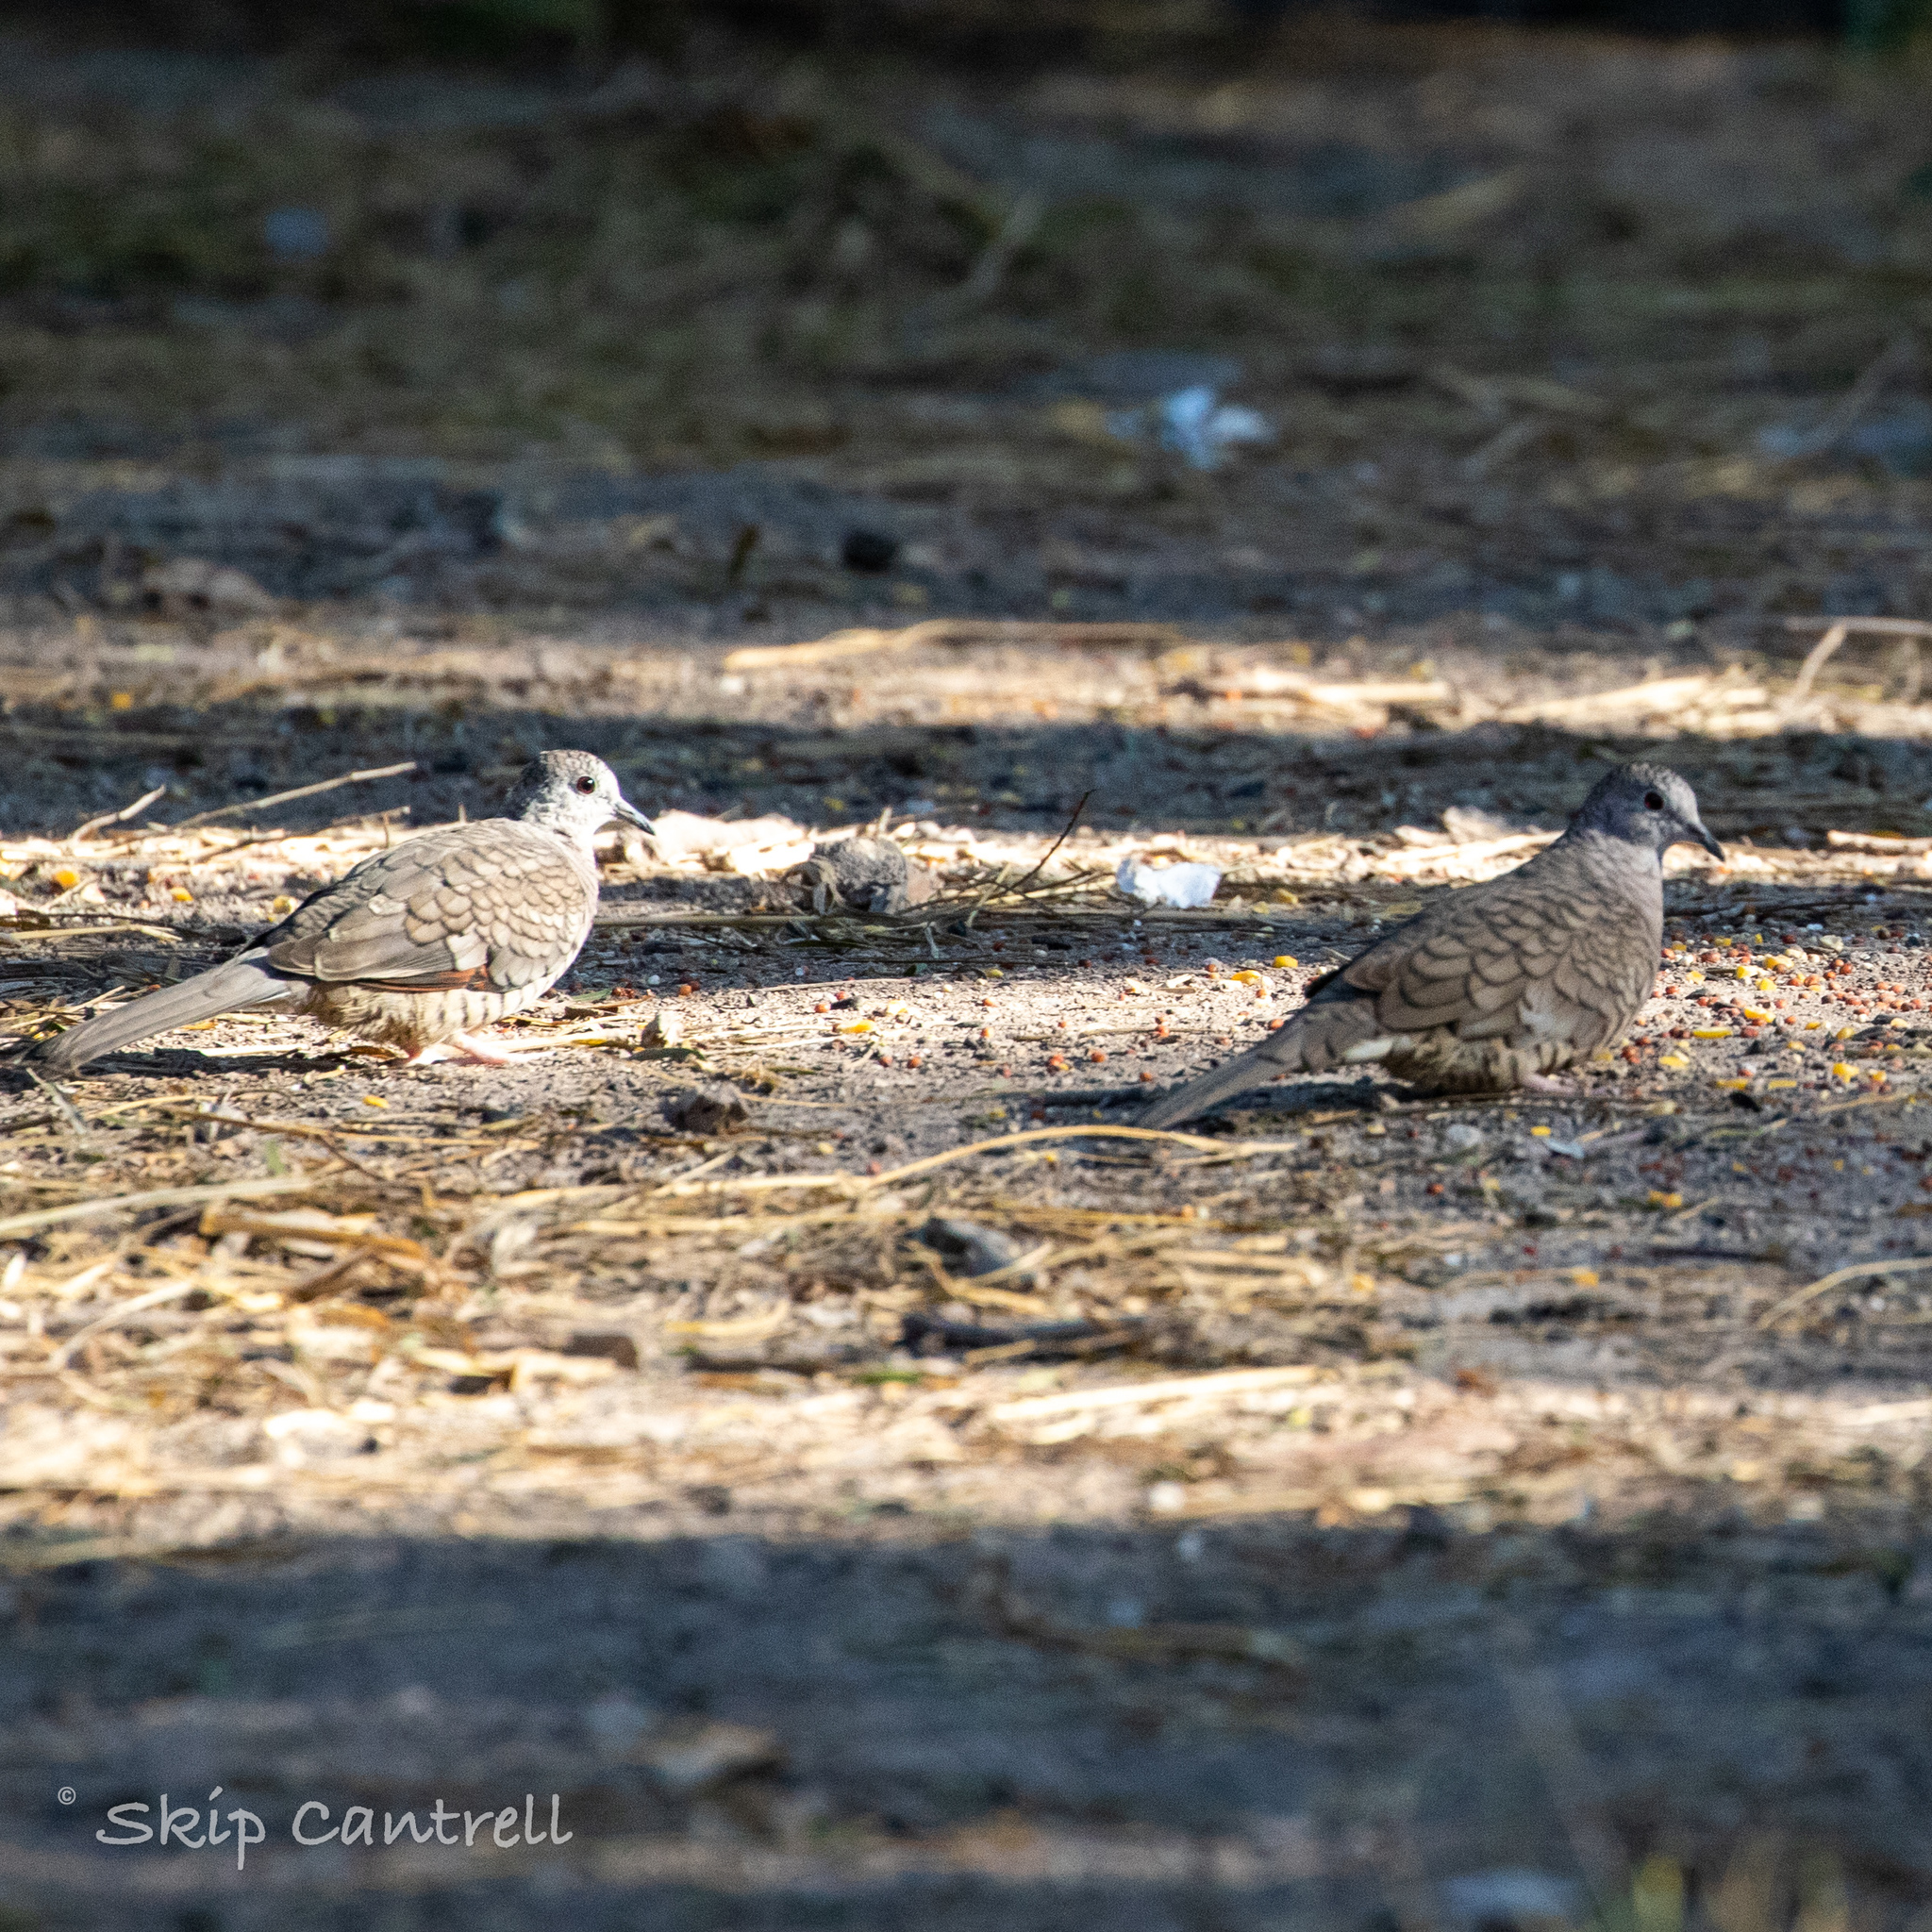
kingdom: Animalia
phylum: Chordata
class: Aves
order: Columbiformes
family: Columbidae
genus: Columbina
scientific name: Columbina inca
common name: Inca dove
